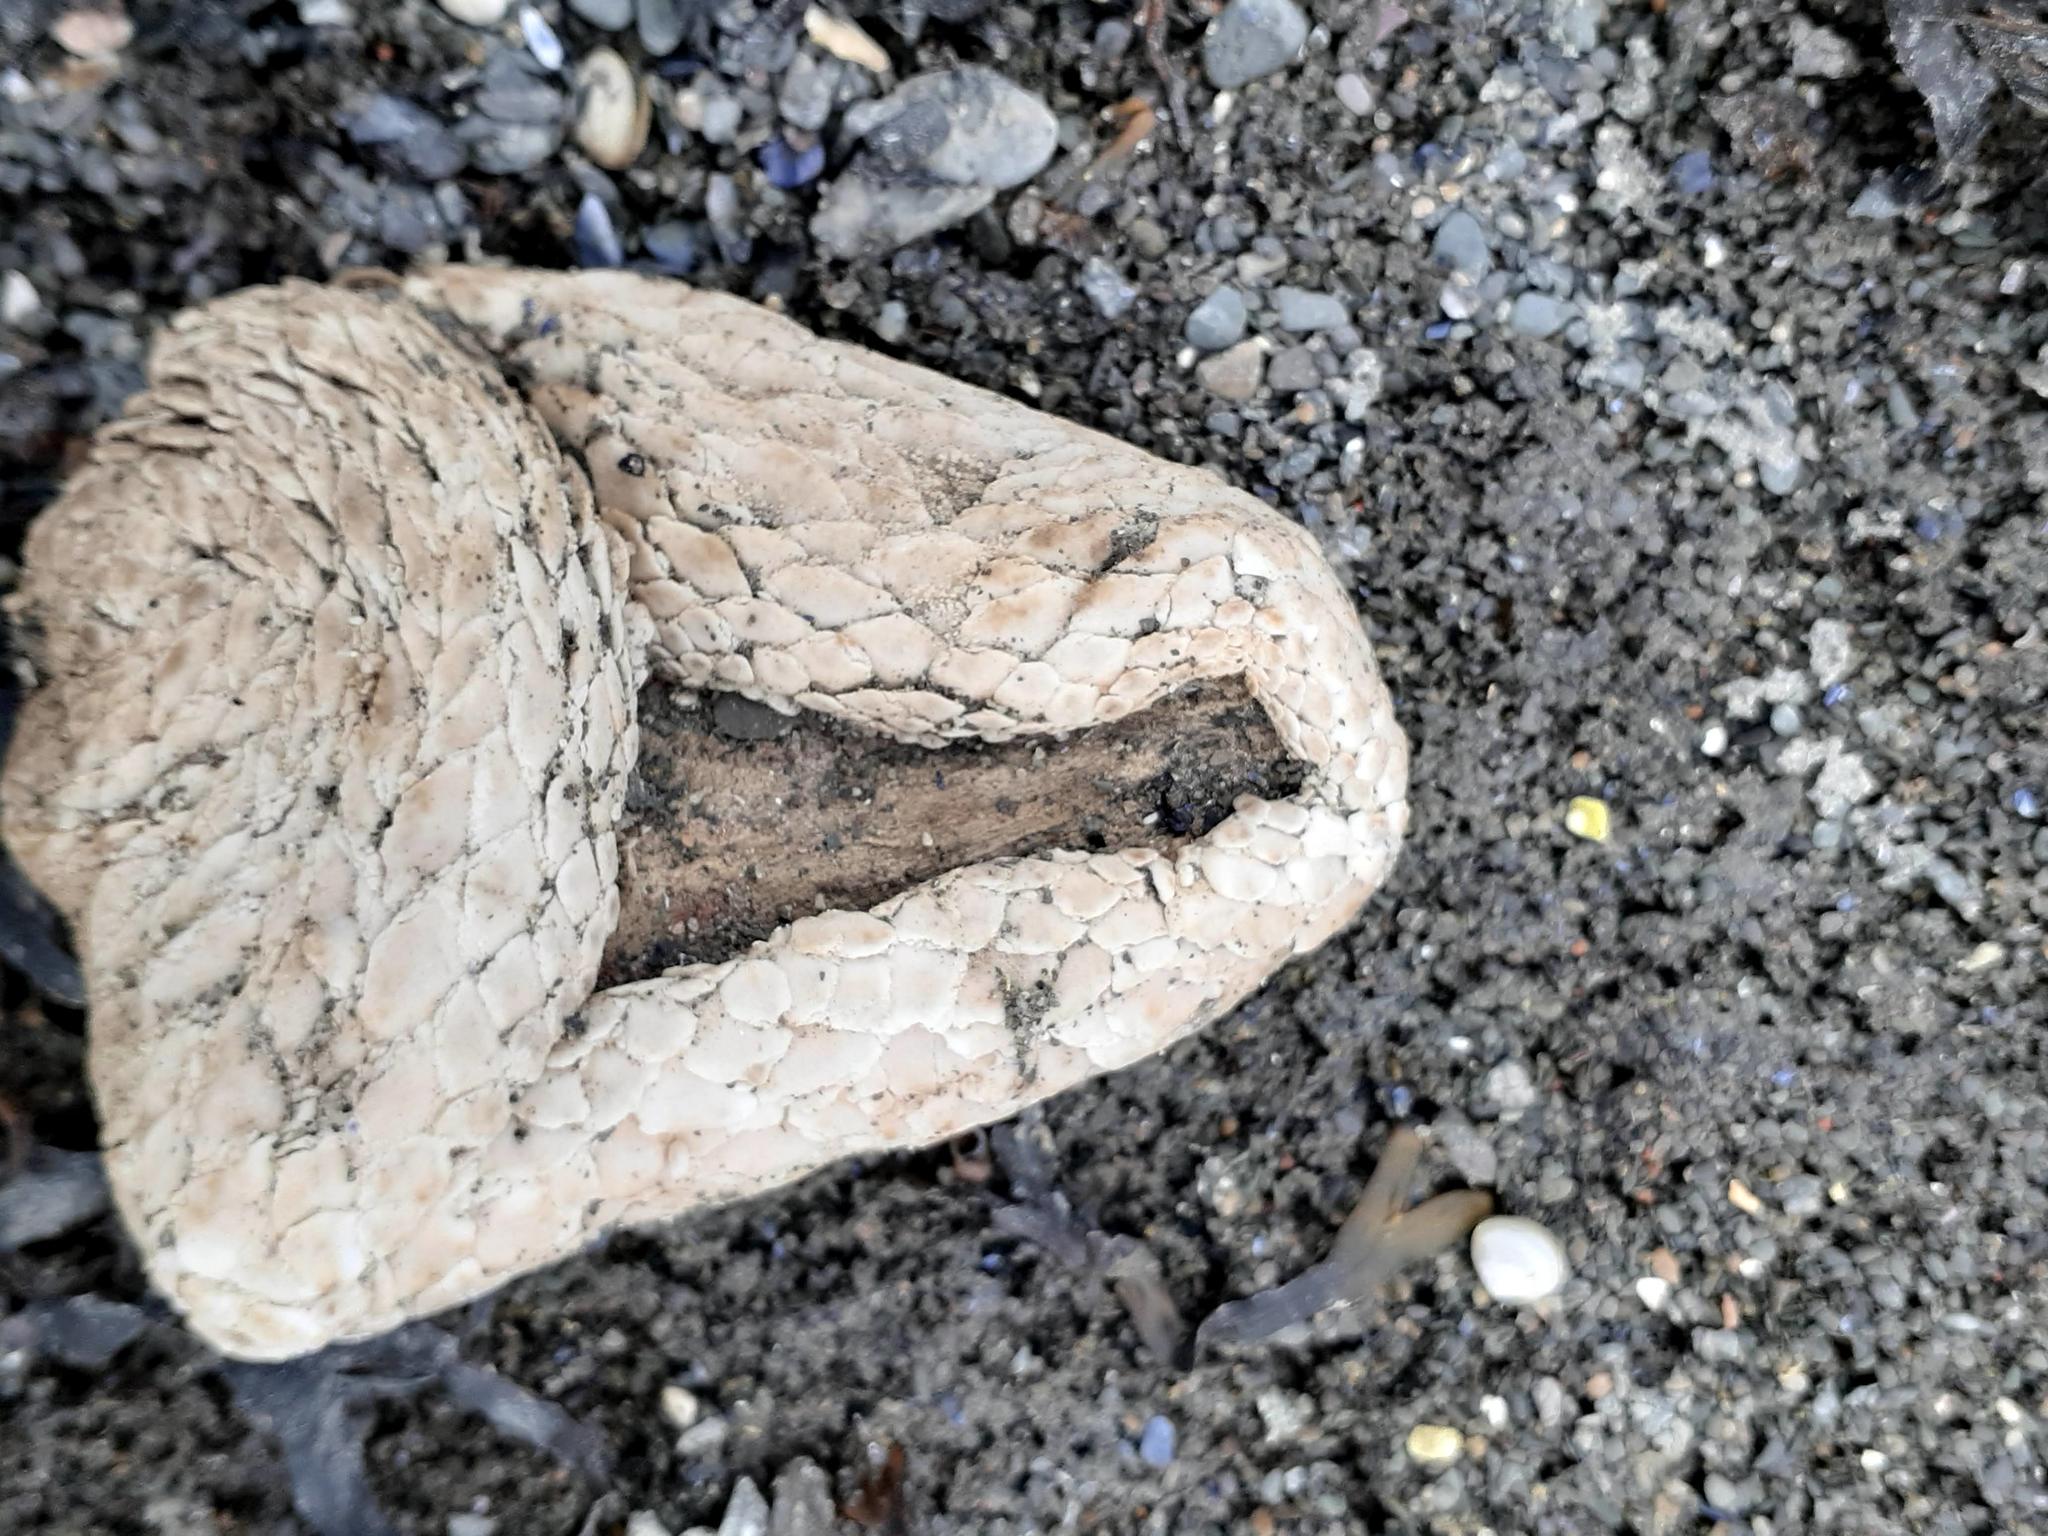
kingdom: Animalia
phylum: Echinodermata
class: Holothuroidea
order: Dendrochirotida
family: Psolidae
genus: Psolus
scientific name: Psolus fabricii
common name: Scarlet psolus
